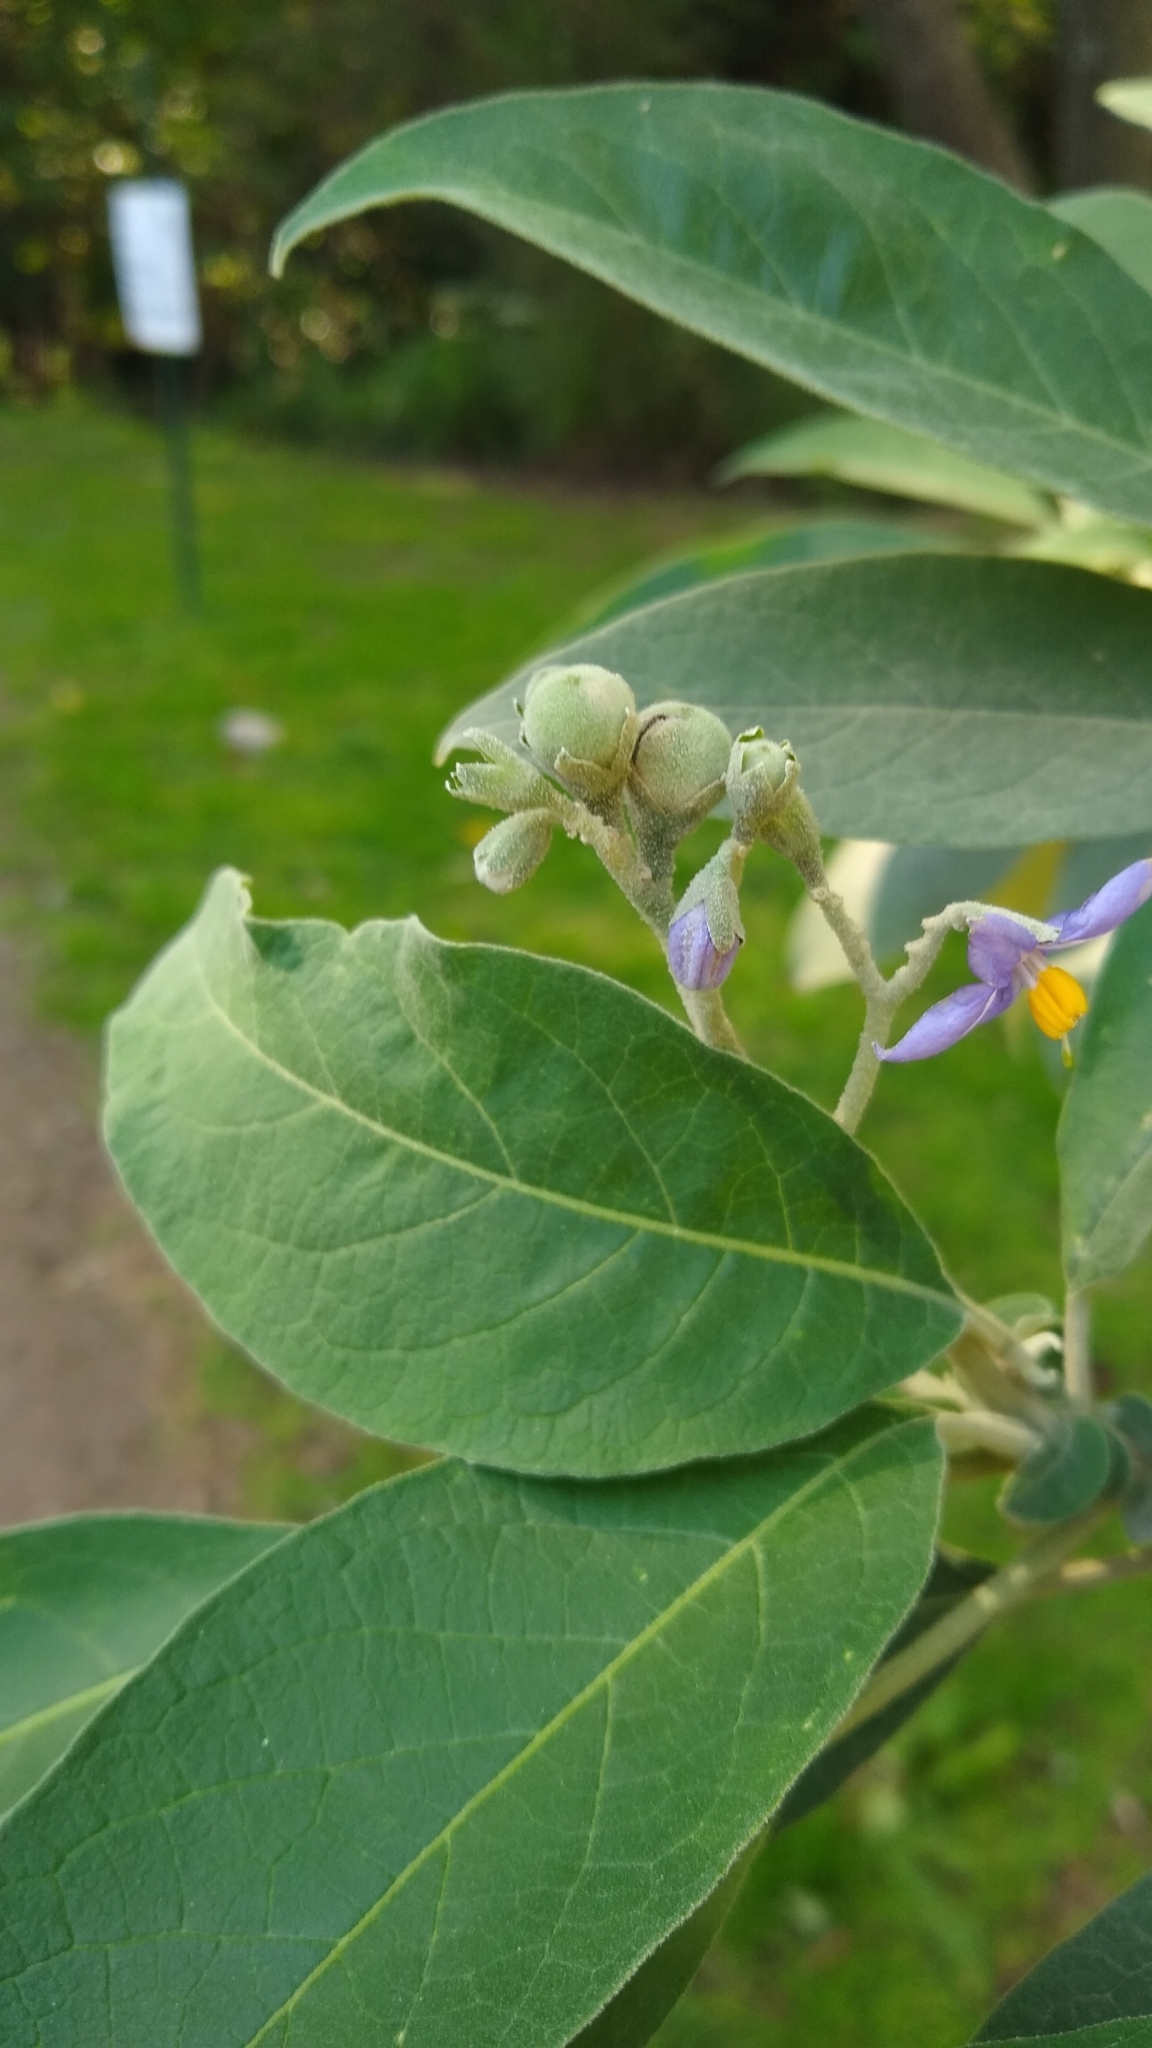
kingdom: Plantae
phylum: Tracheophyta
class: Magnoliopsida
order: Solanales
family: Solanaceae
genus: Solanum
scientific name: Solanum granulosoleprosum
